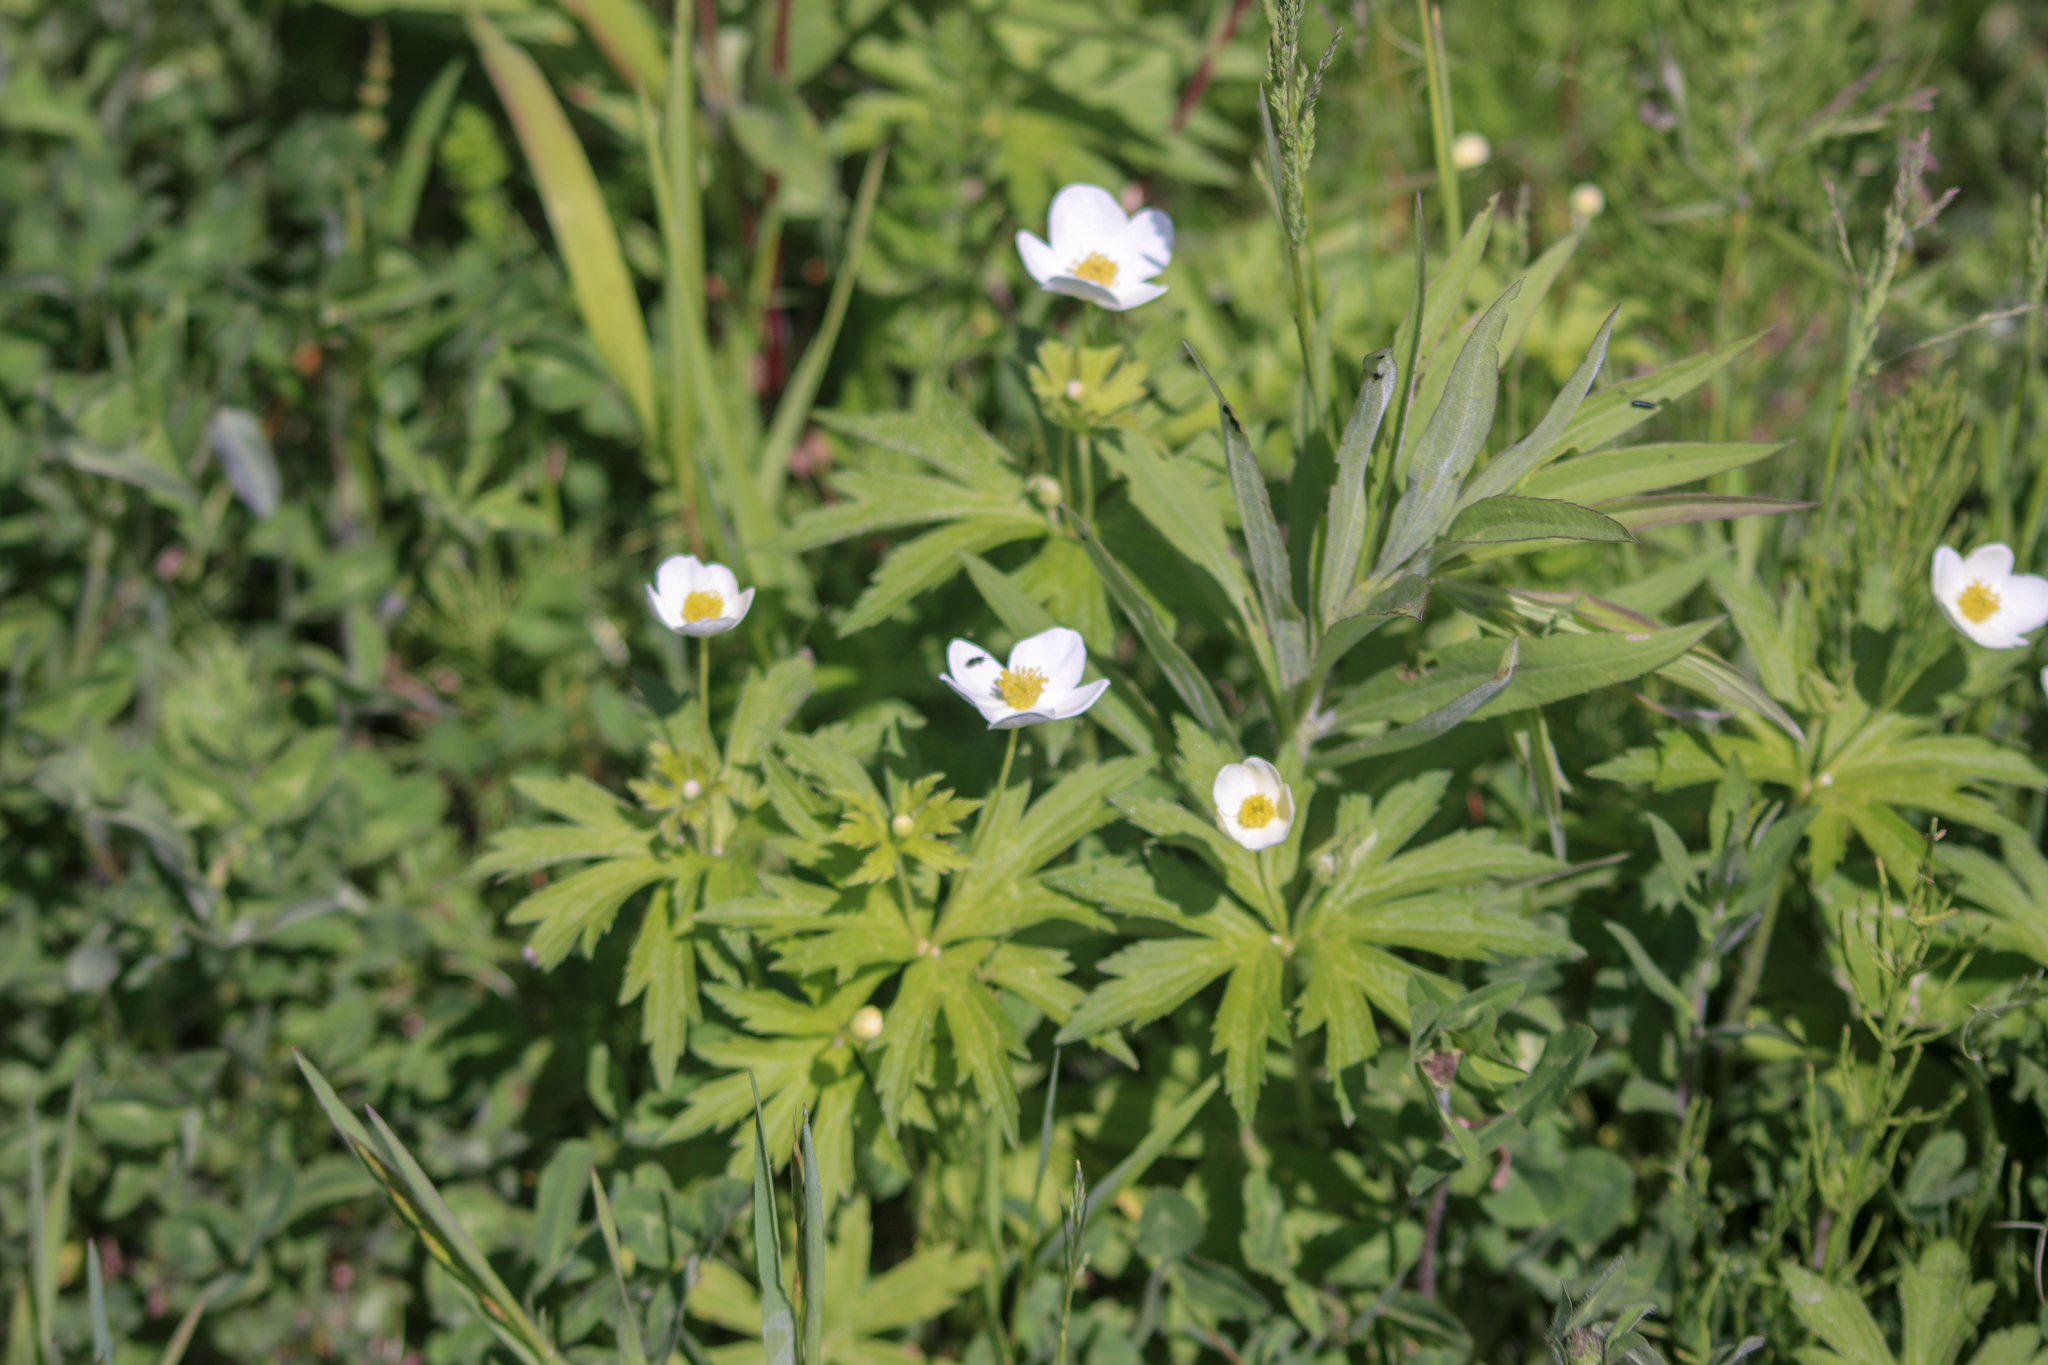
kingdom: Plantae
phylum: Tracheophyta
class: Magnoliopsida
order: Ranunculales
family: Ranunculaceae
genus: Anemonastrum
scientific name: Anemonastrum canadense
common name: Canada anemone
